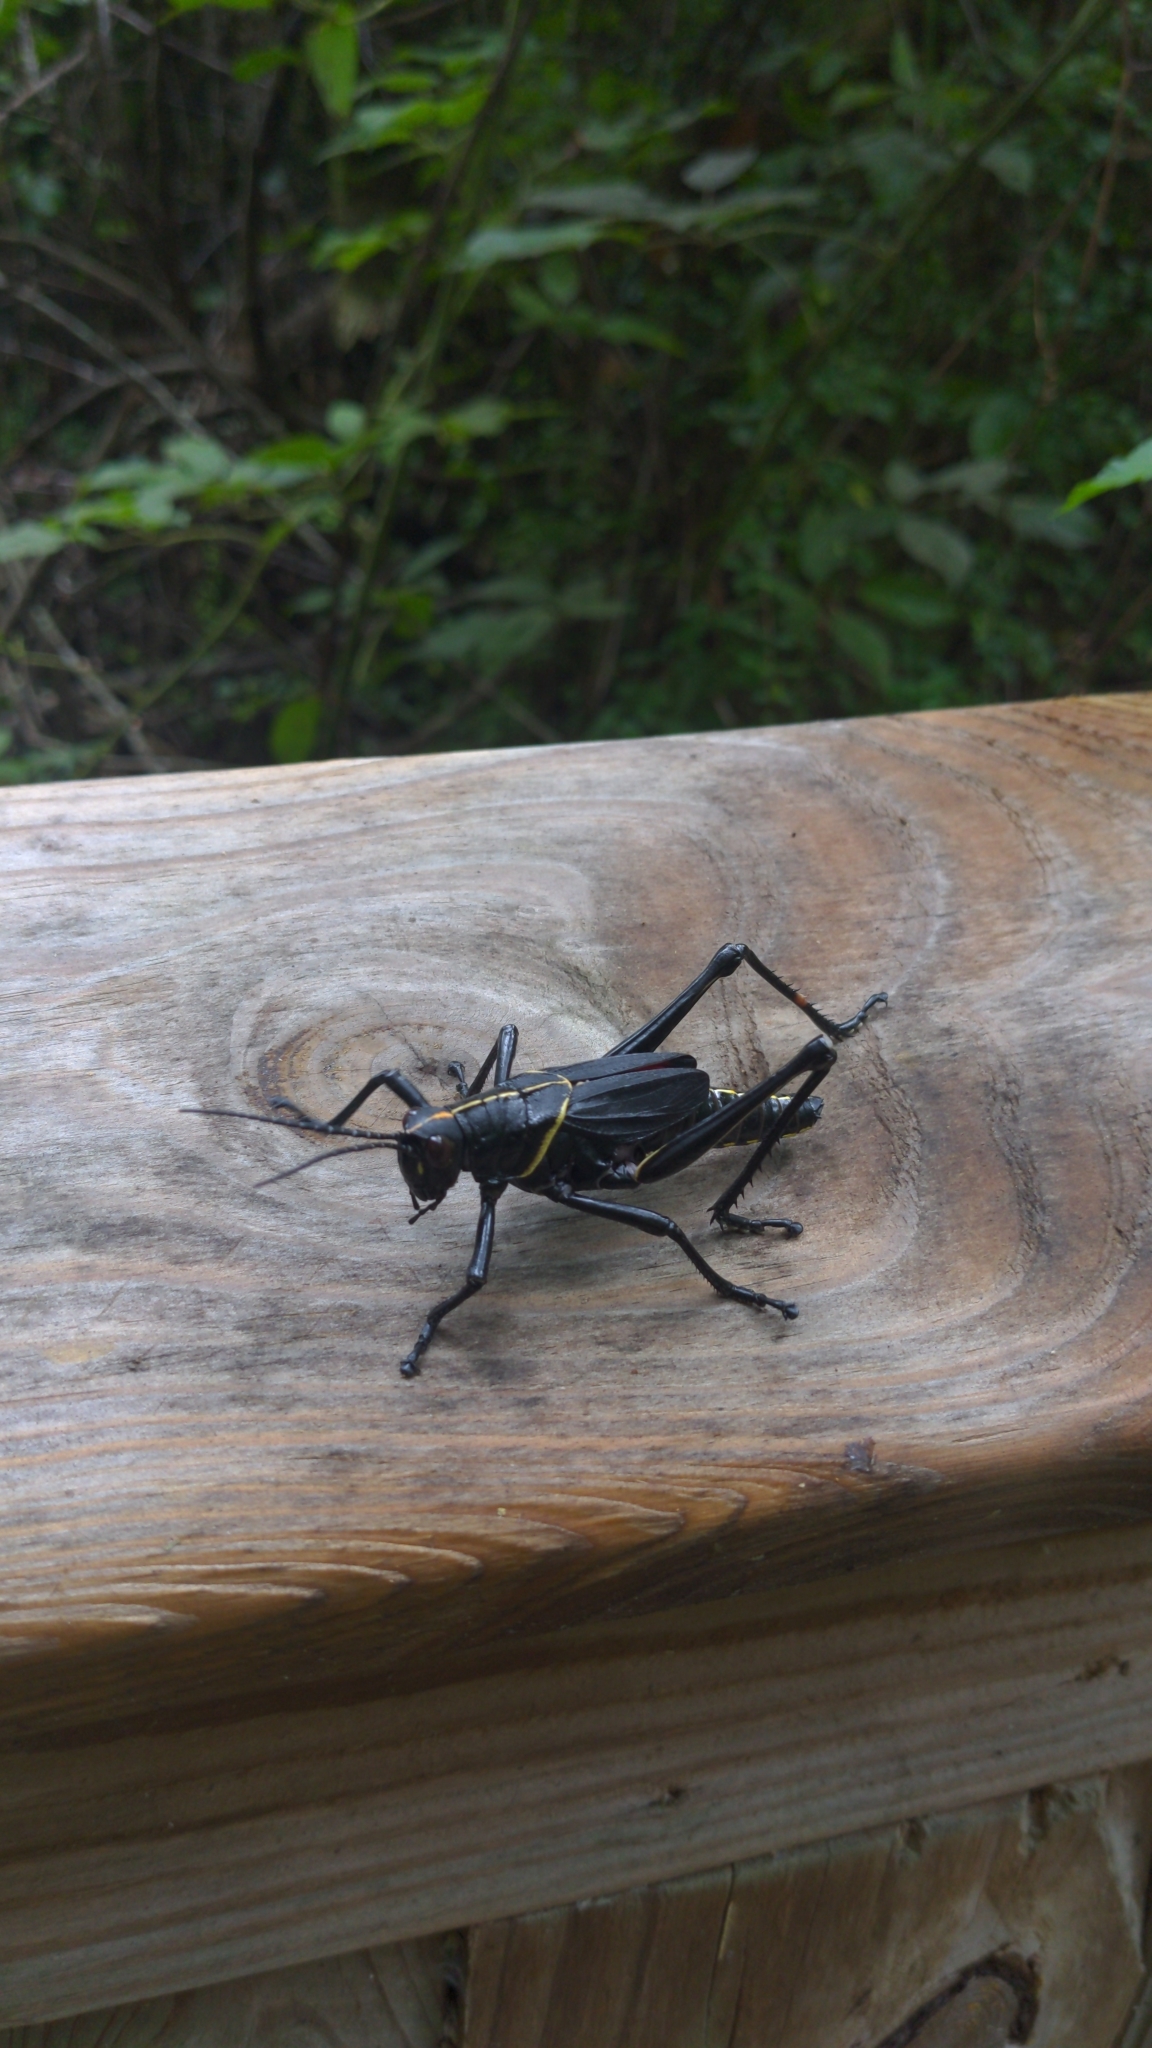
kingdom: Animalia
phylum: Arthropoda
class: Insecta
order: Orthoptera
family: Romaleidae
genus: Romalea
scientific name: Romalea microptera
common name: Eastern lubber grasshopper
